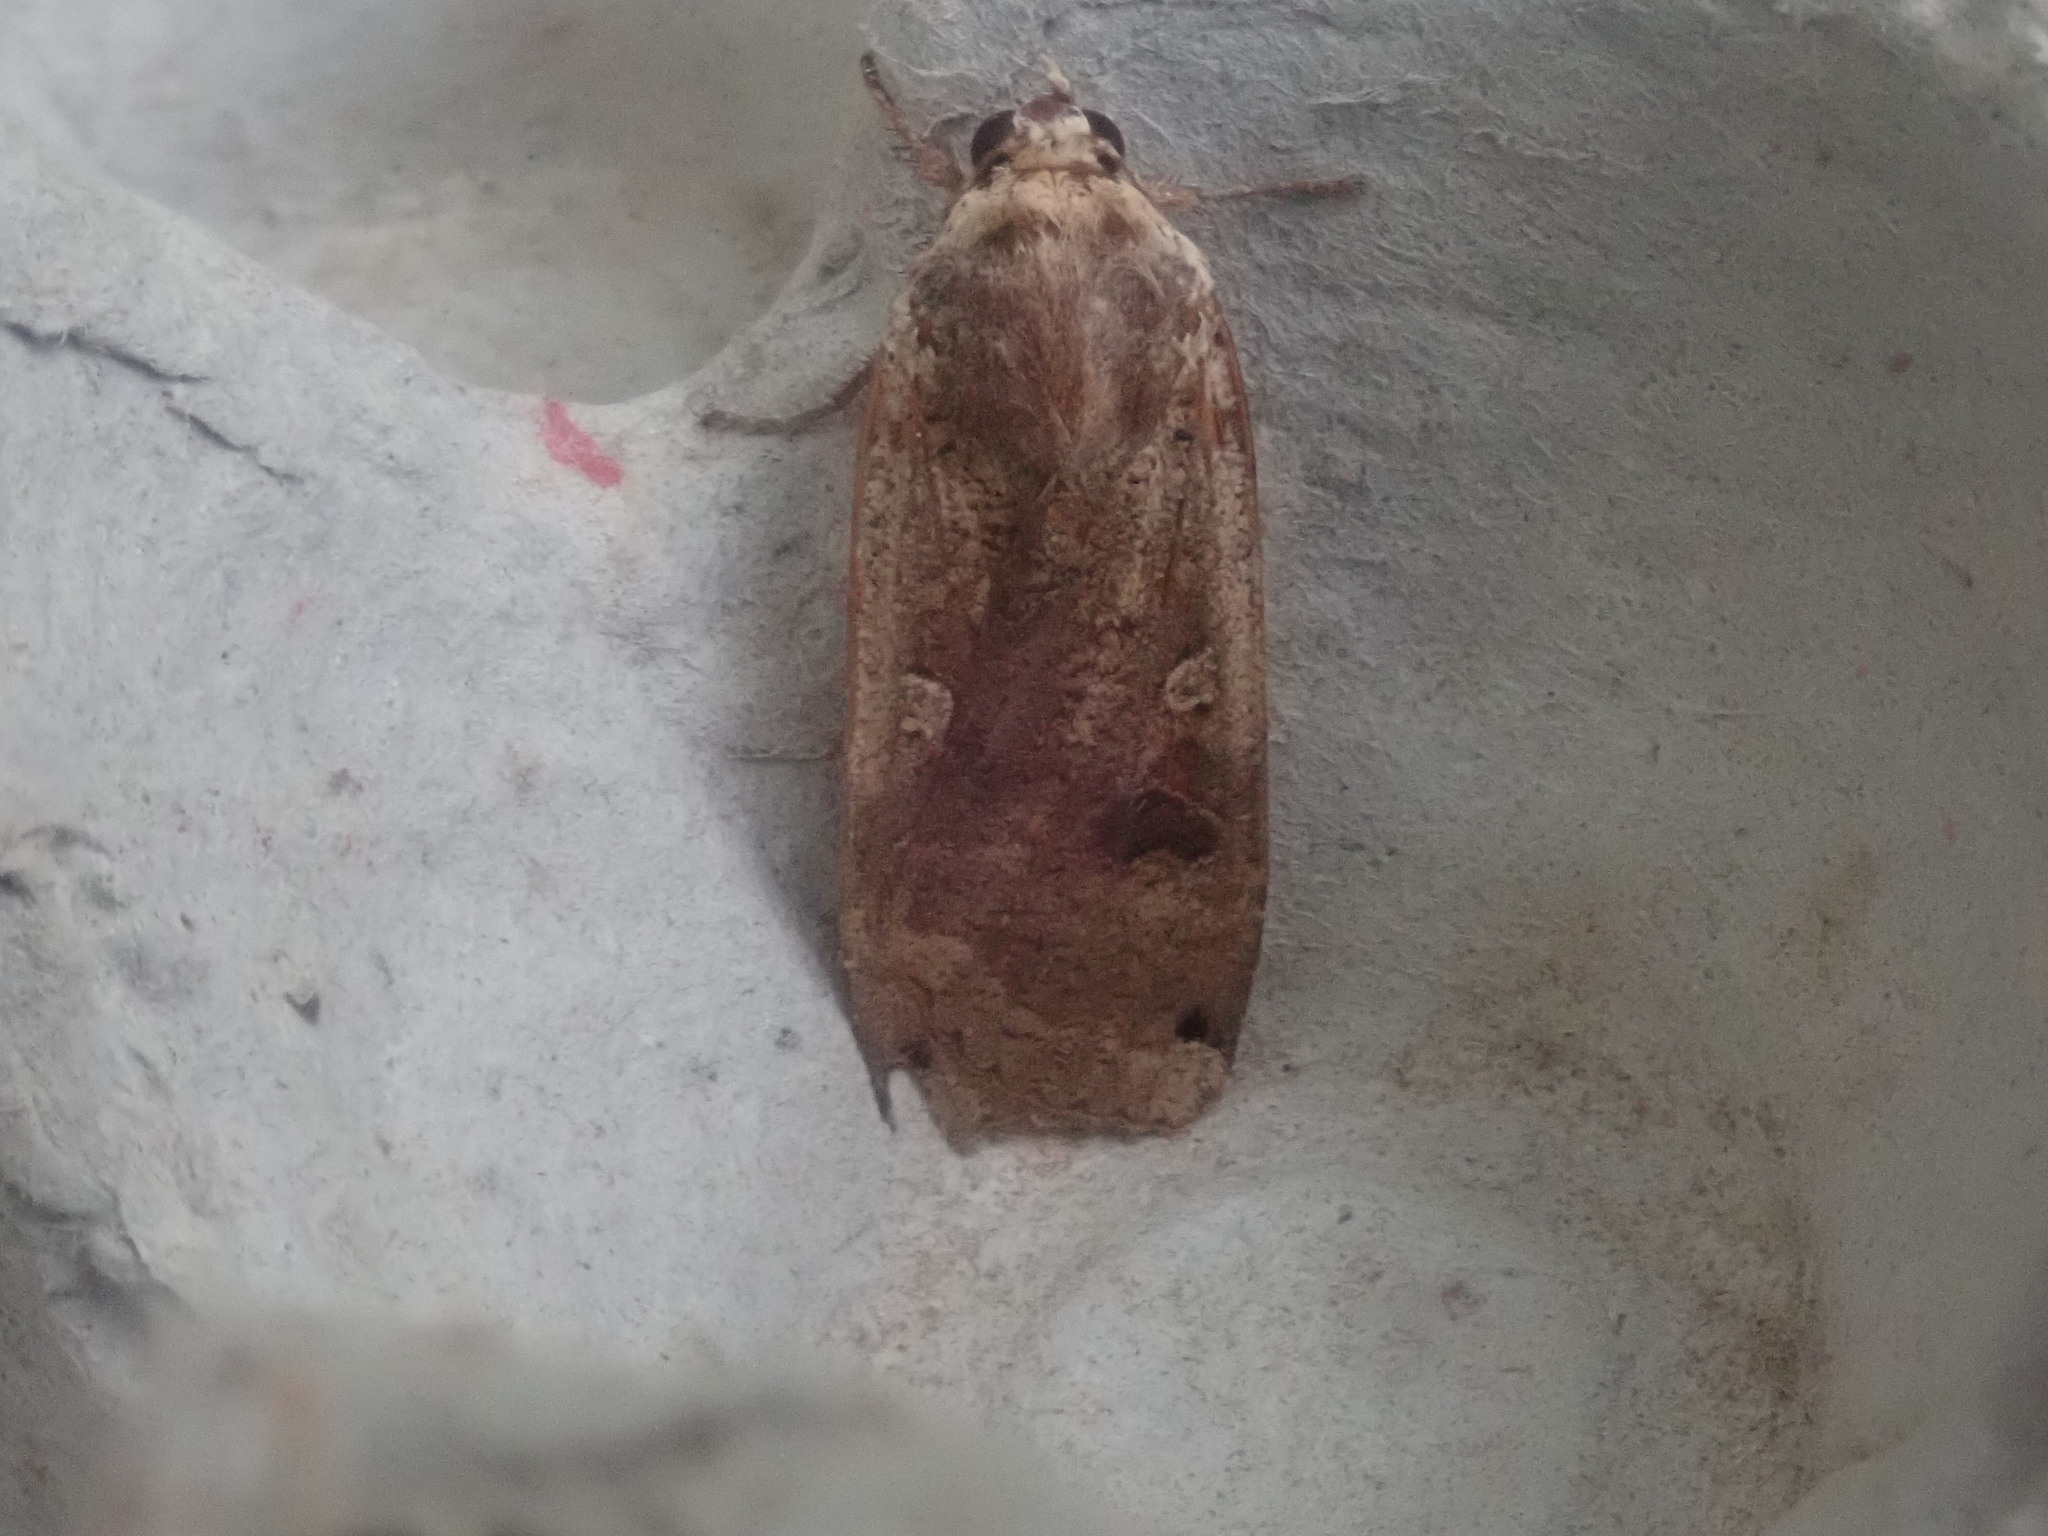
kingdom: Animalia
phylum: Arthropoda
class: Insecta
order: Lepidoptera
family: Noctuidae
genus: Noctua
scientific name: Noctua pronuba
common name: Large yellow underwing
